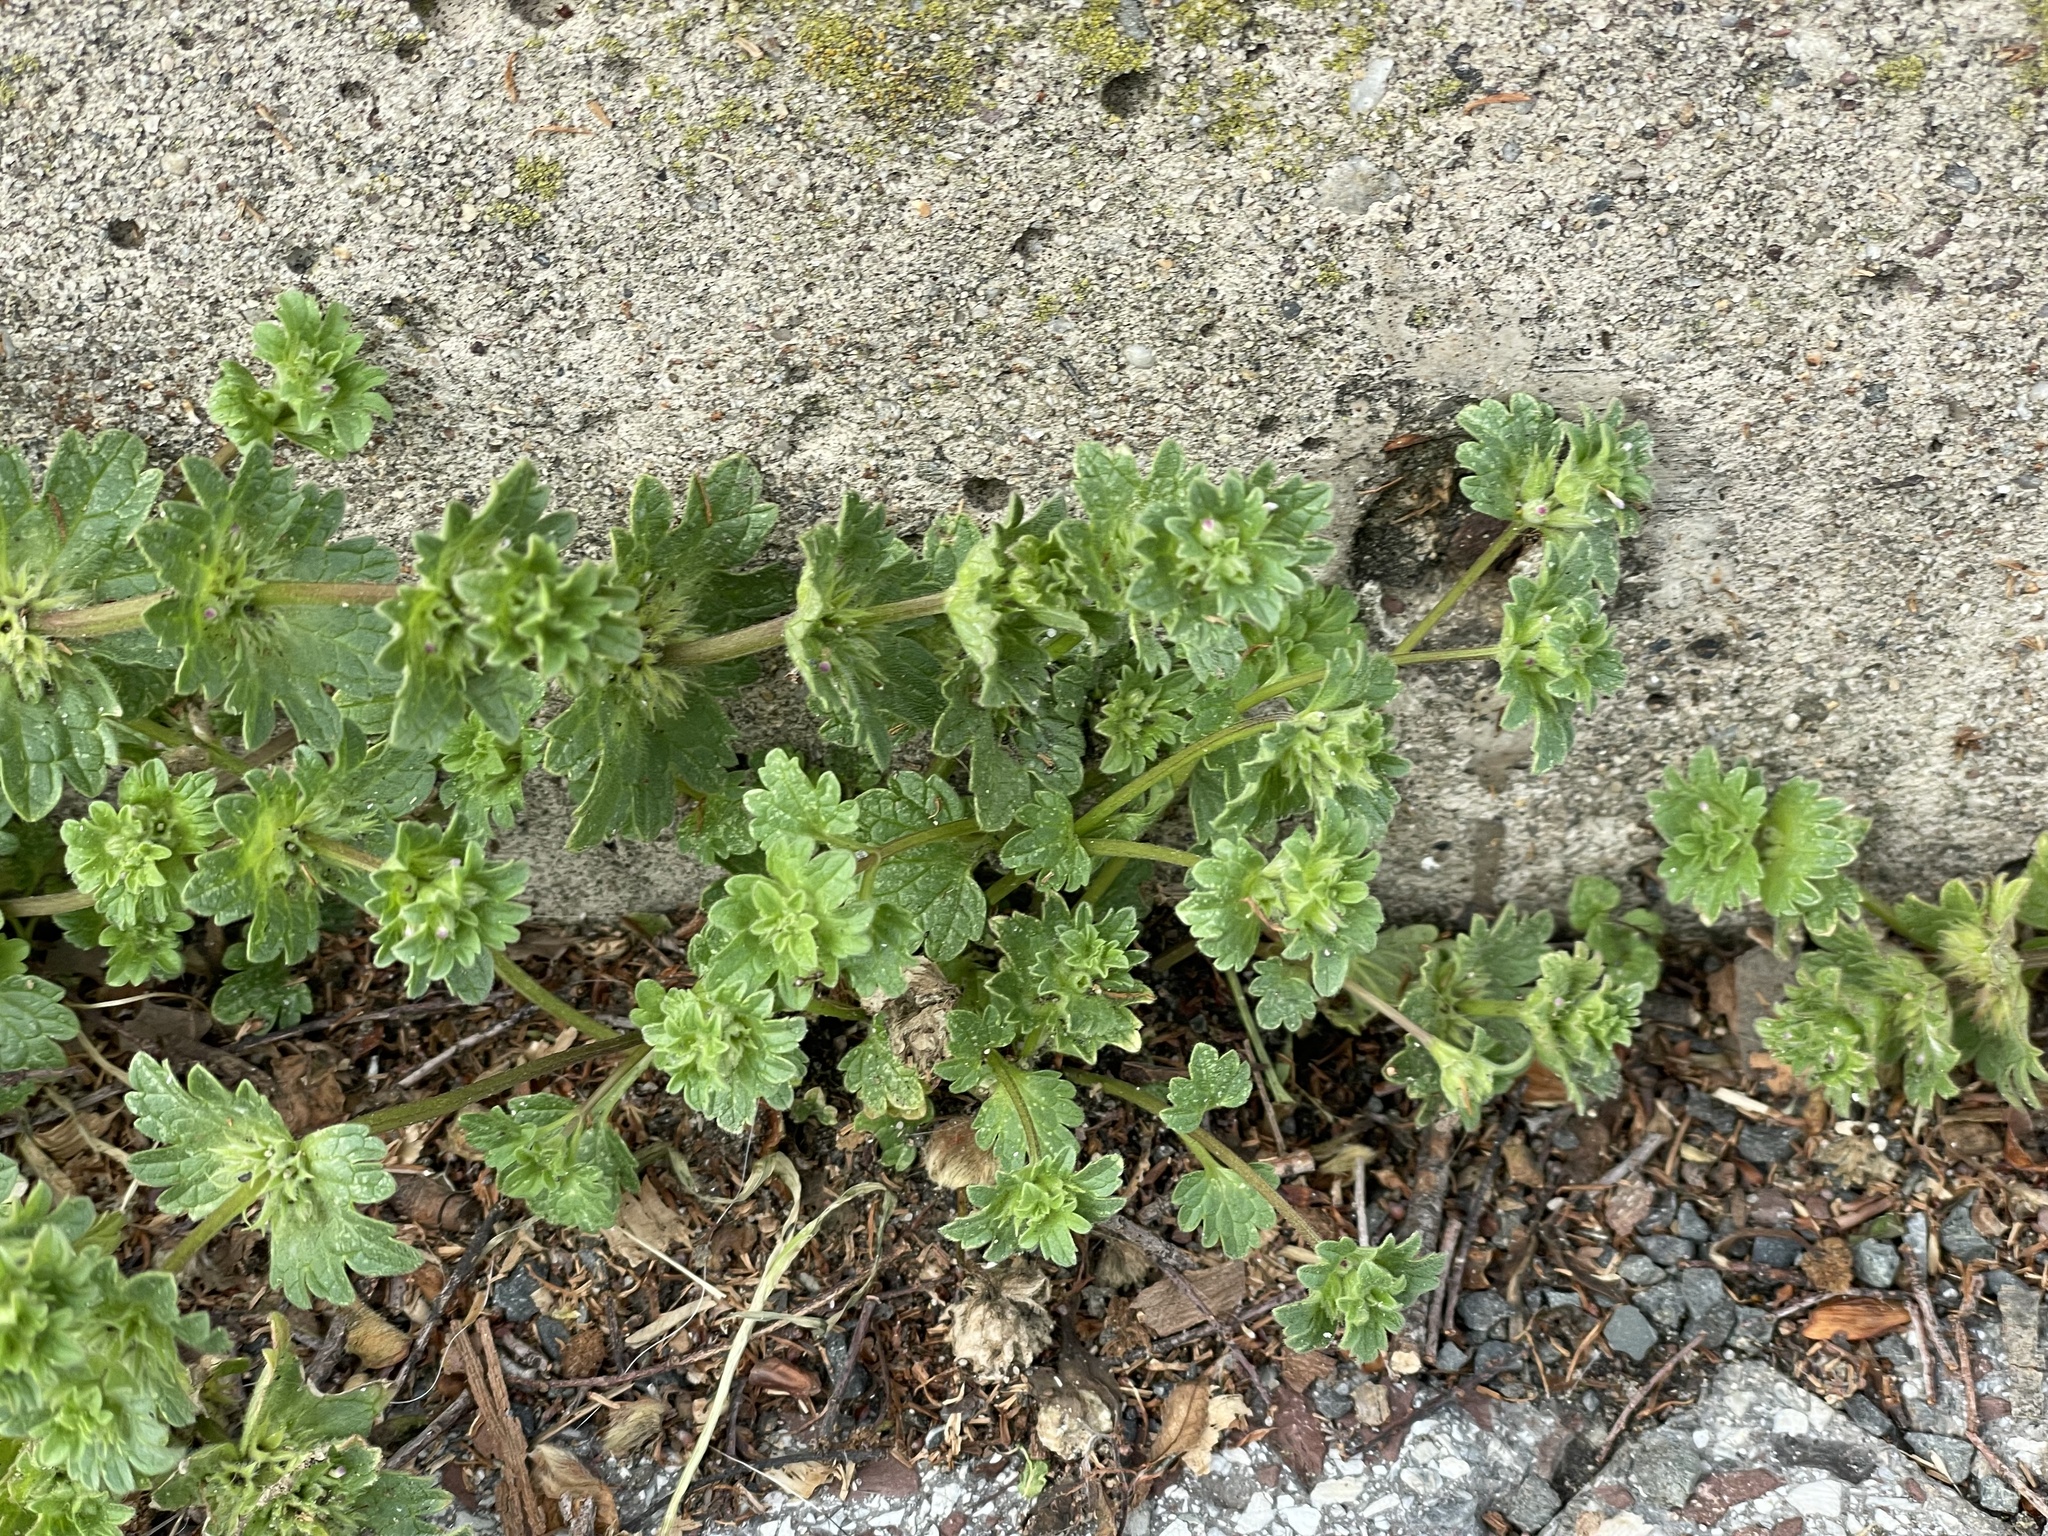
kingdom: Plantae
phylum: Tracheophyta
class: Magnoliopsida
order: Lamiales
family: Lamiaceae
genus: Lamium
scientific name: Lamium amplexicaule
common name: Henbit dead-nettle
